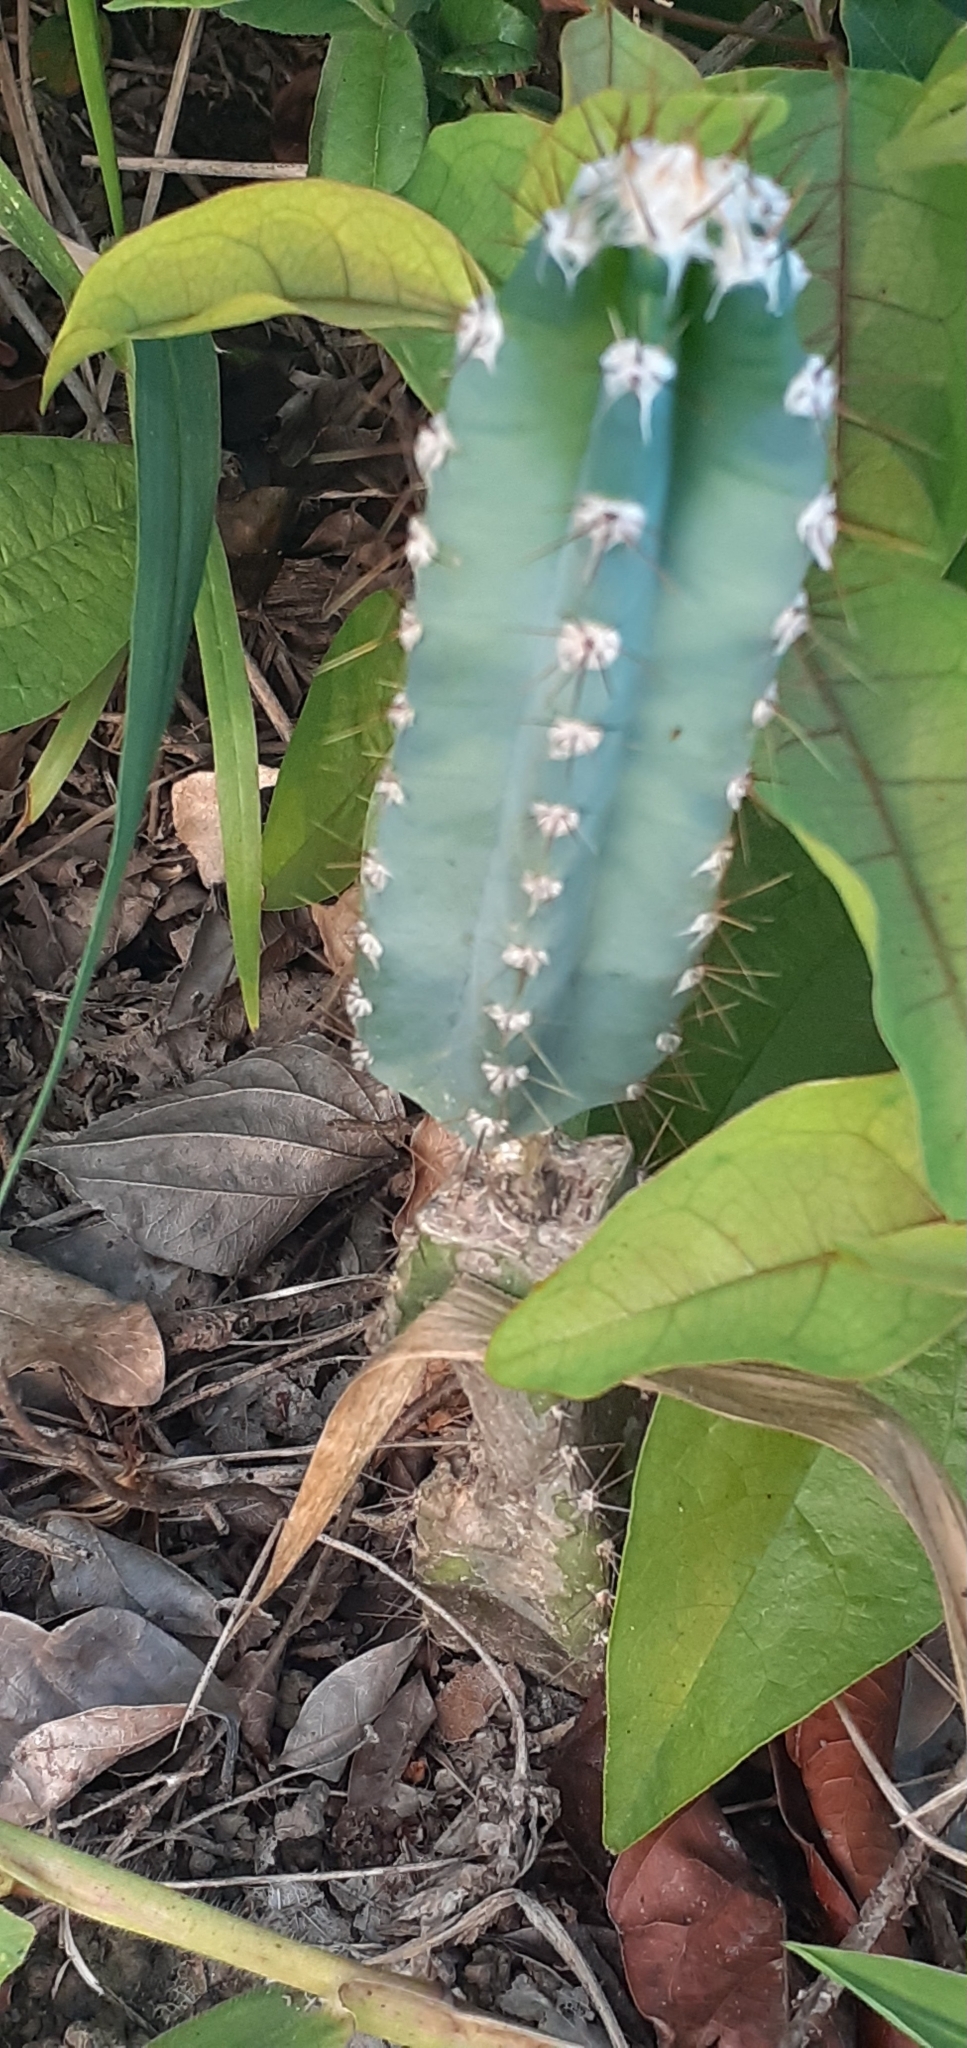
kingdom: Plantae
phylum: Tracheophyta
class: Magnoliopsida
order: Caryophyllales
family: Cactaceae
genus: Cereus
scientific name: Cereus jamacaru
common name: Queen-of-the-night
